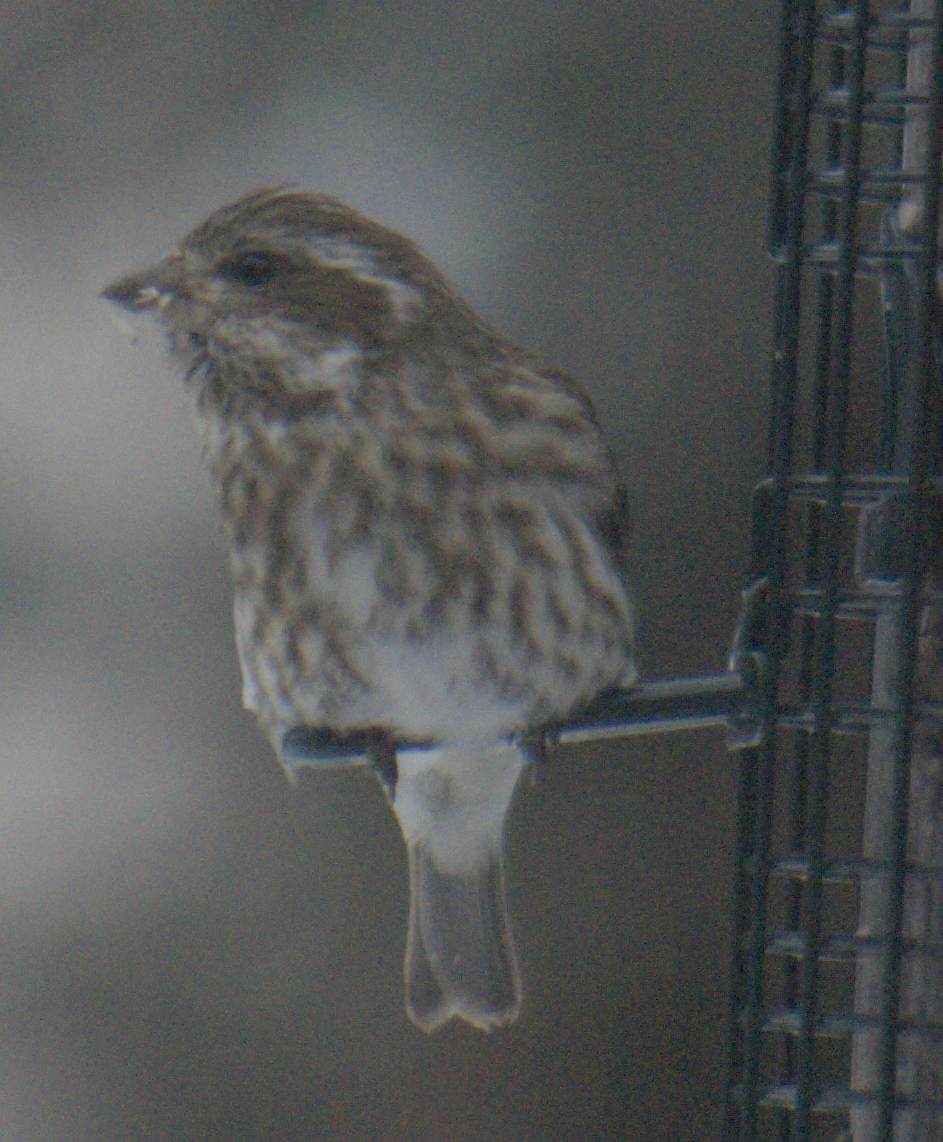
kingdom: Animalia
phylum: Chordata
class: Aves
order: Passeriformes
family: Fringillidae
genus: Haemorhous
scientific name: Haemorhous purpureus
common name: Purple finch
